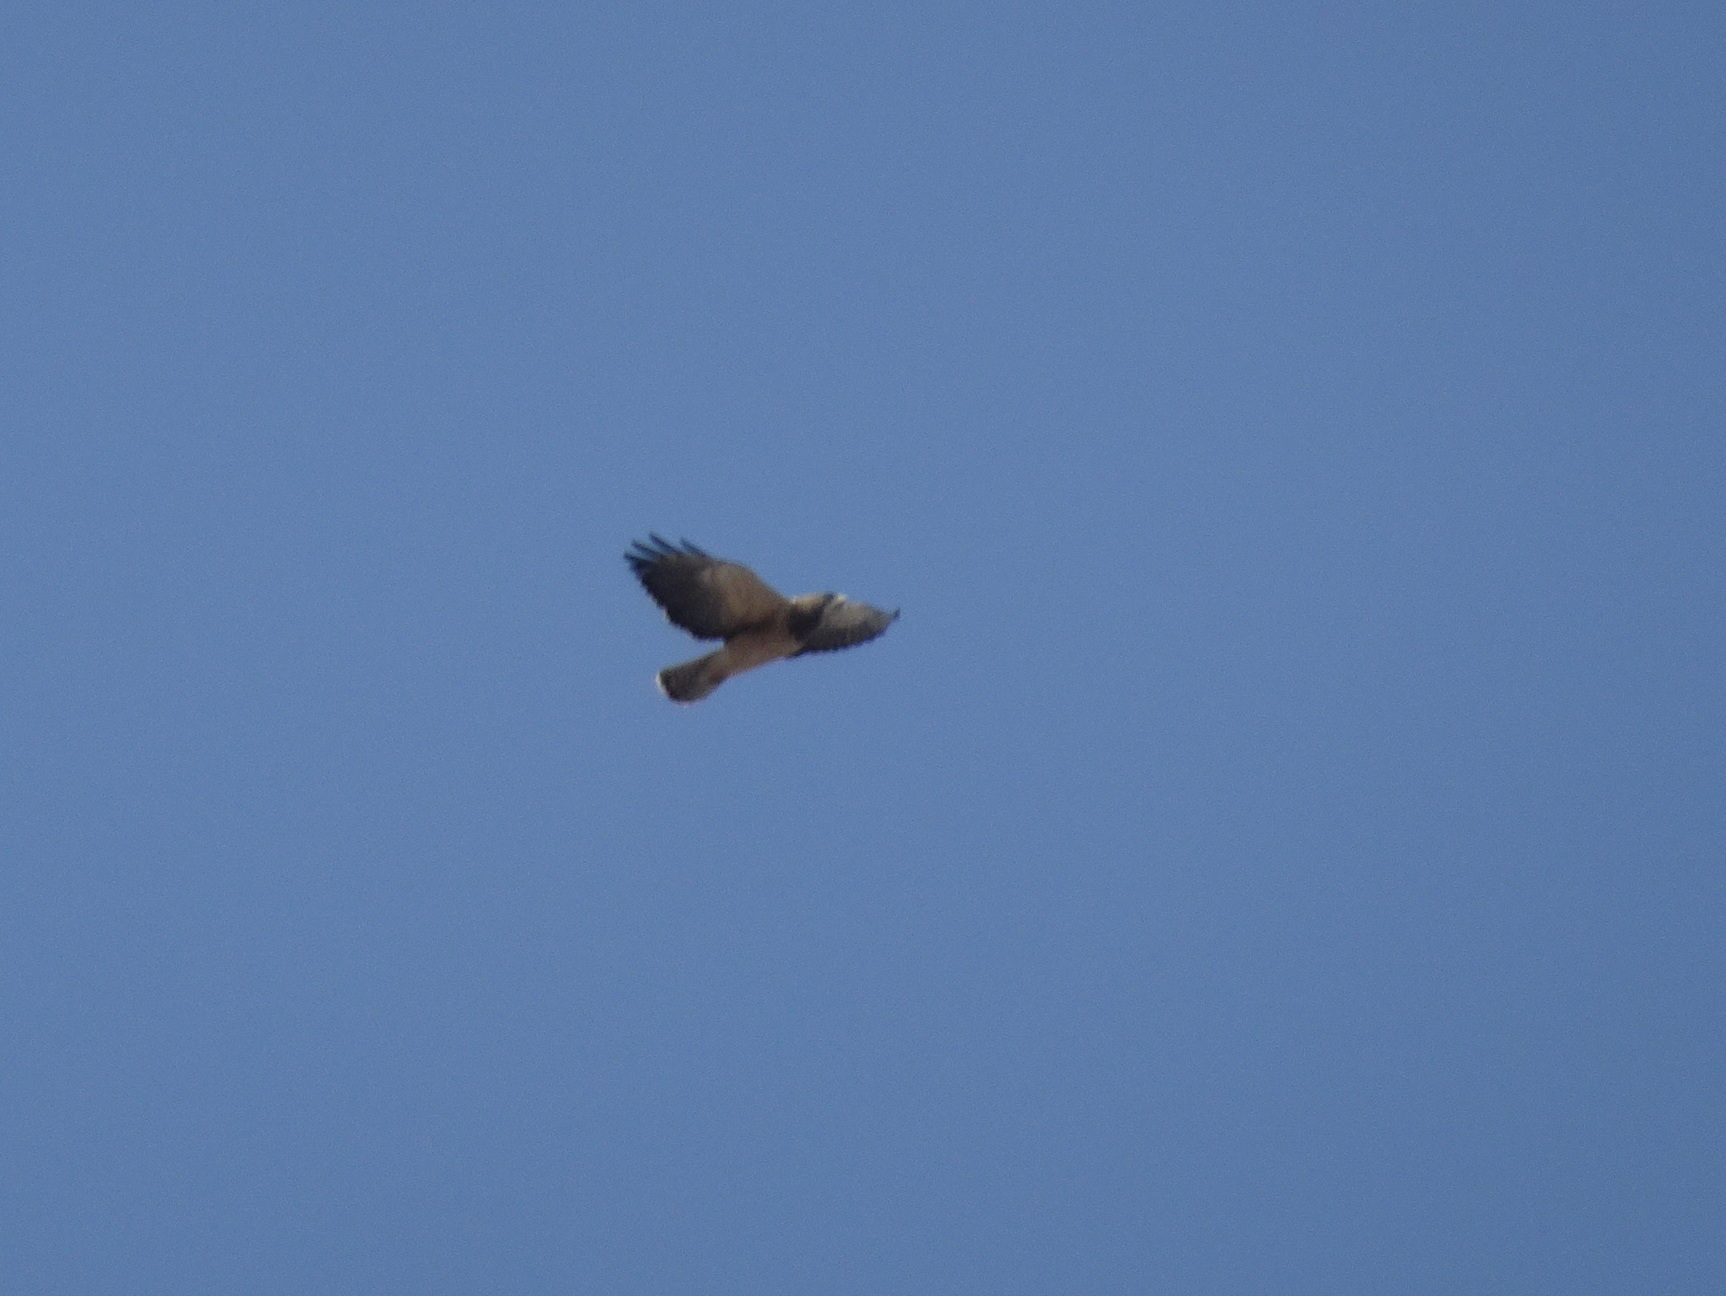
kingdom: Animalia
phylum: Chordata
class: Aves
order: Accipitriformes
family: Accipitridae
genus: Buteo
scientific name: Buteo swainsoni
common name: Swainson's hawk
